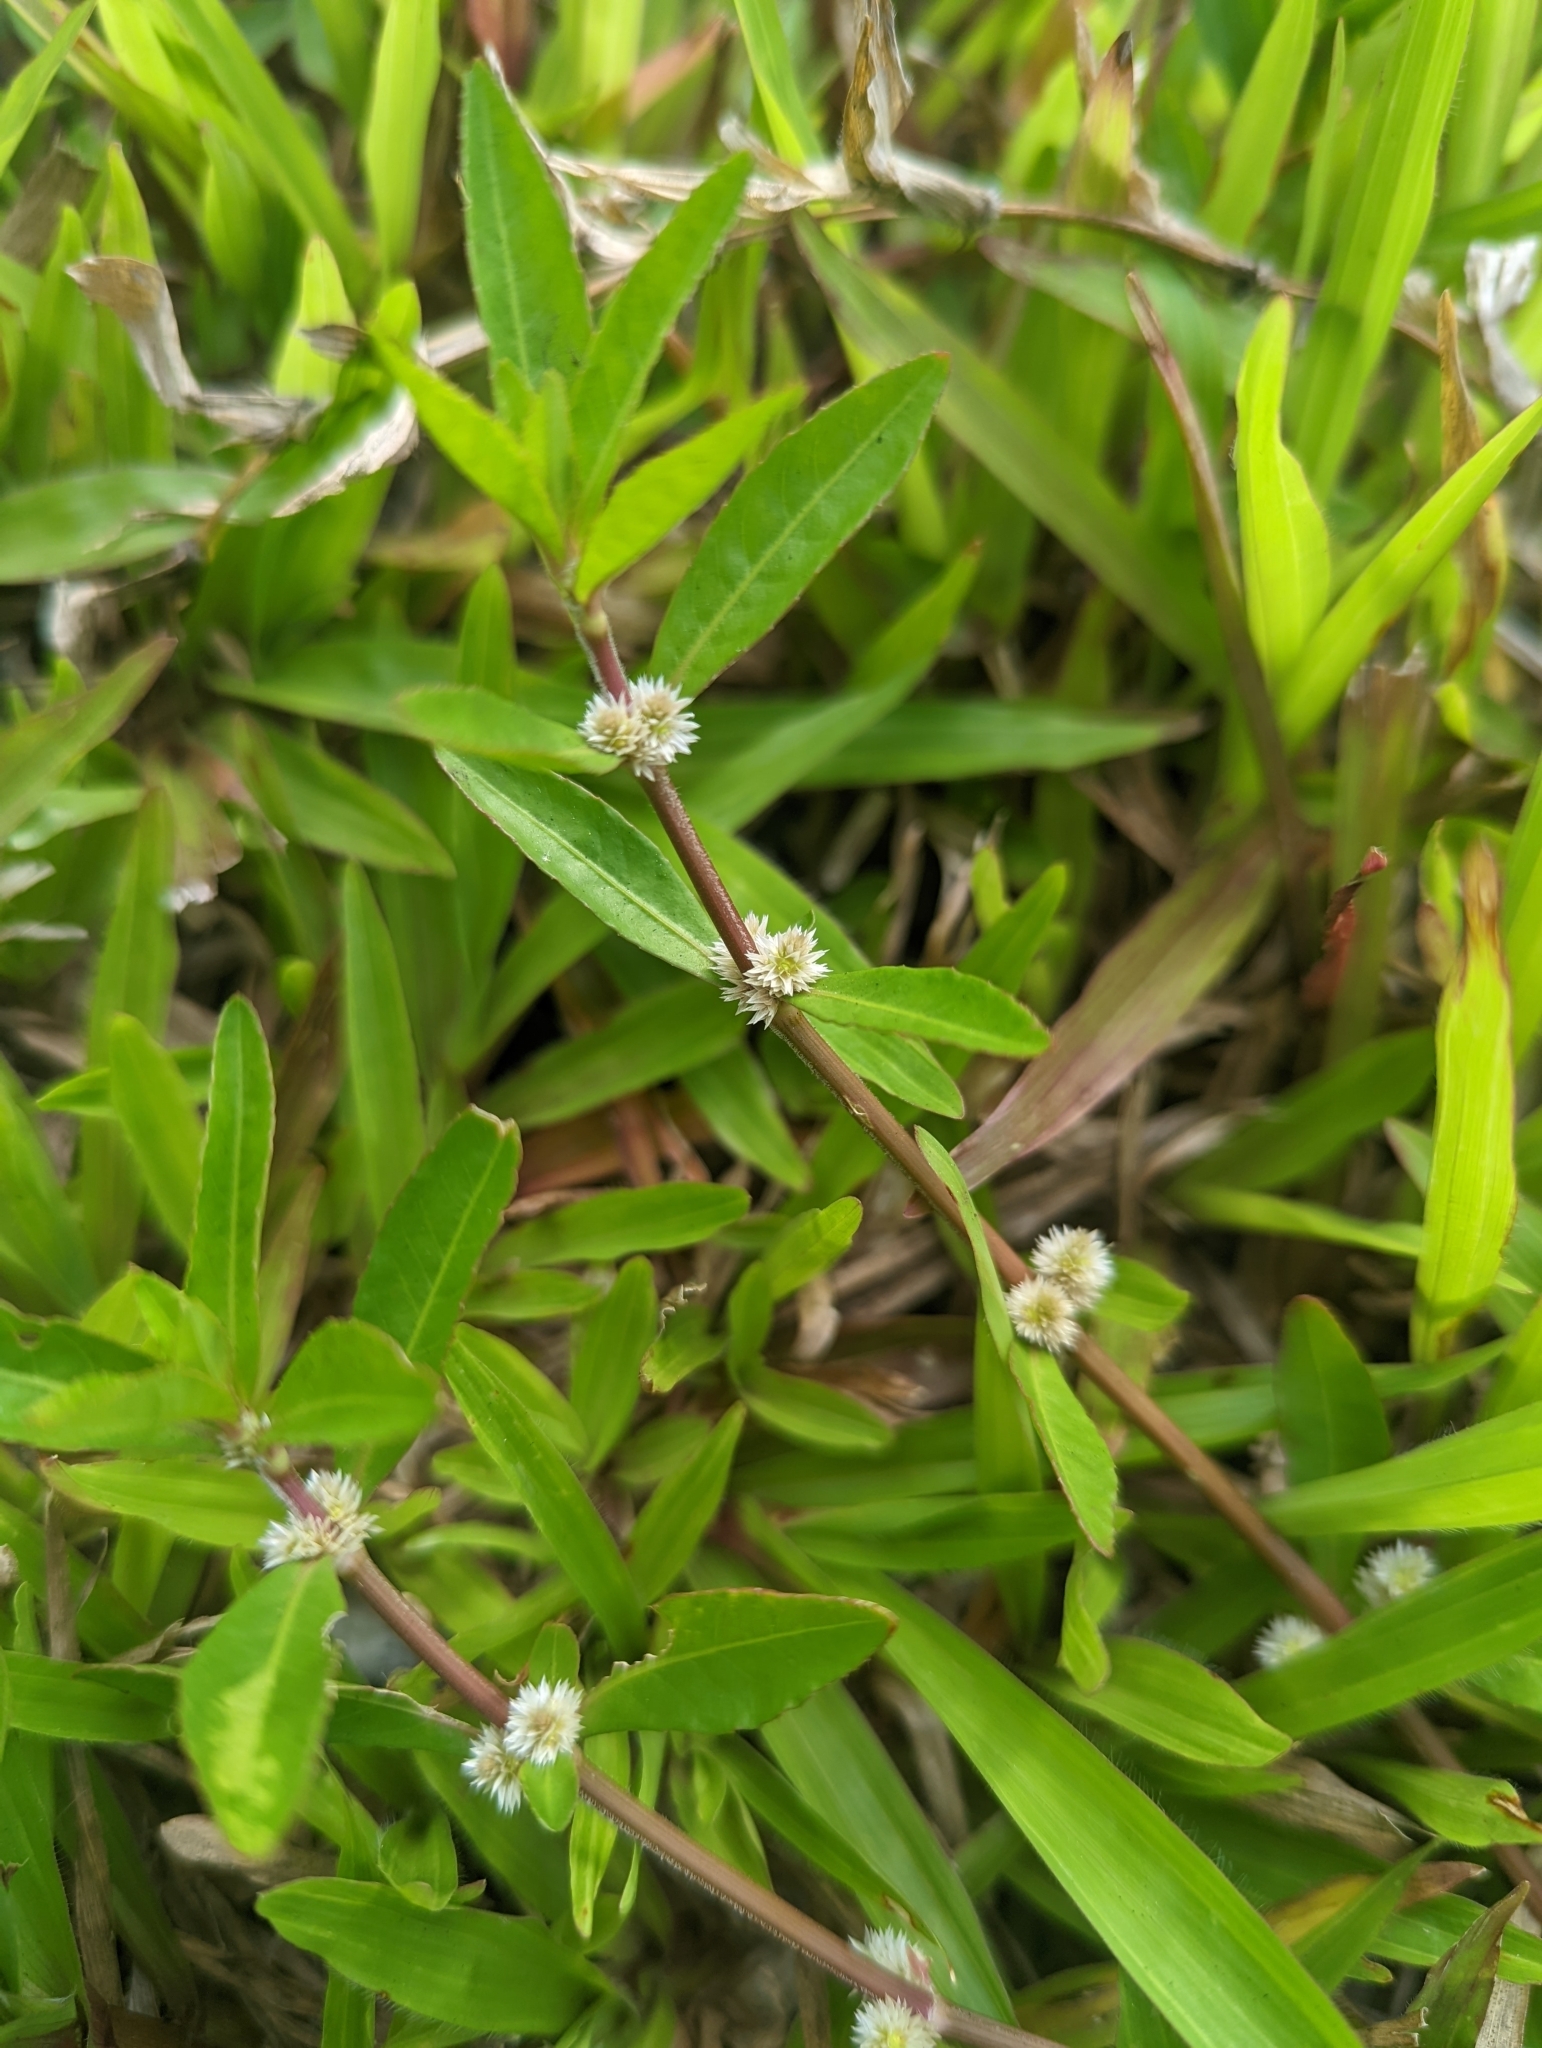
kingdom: Plantae
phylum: Tracheophyta
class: Magnoliopsida
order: Caryophyllales
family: Amaranthaceae
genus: Alternanthera
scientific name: Alternanthera sessilis
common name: Sessile joyweed
